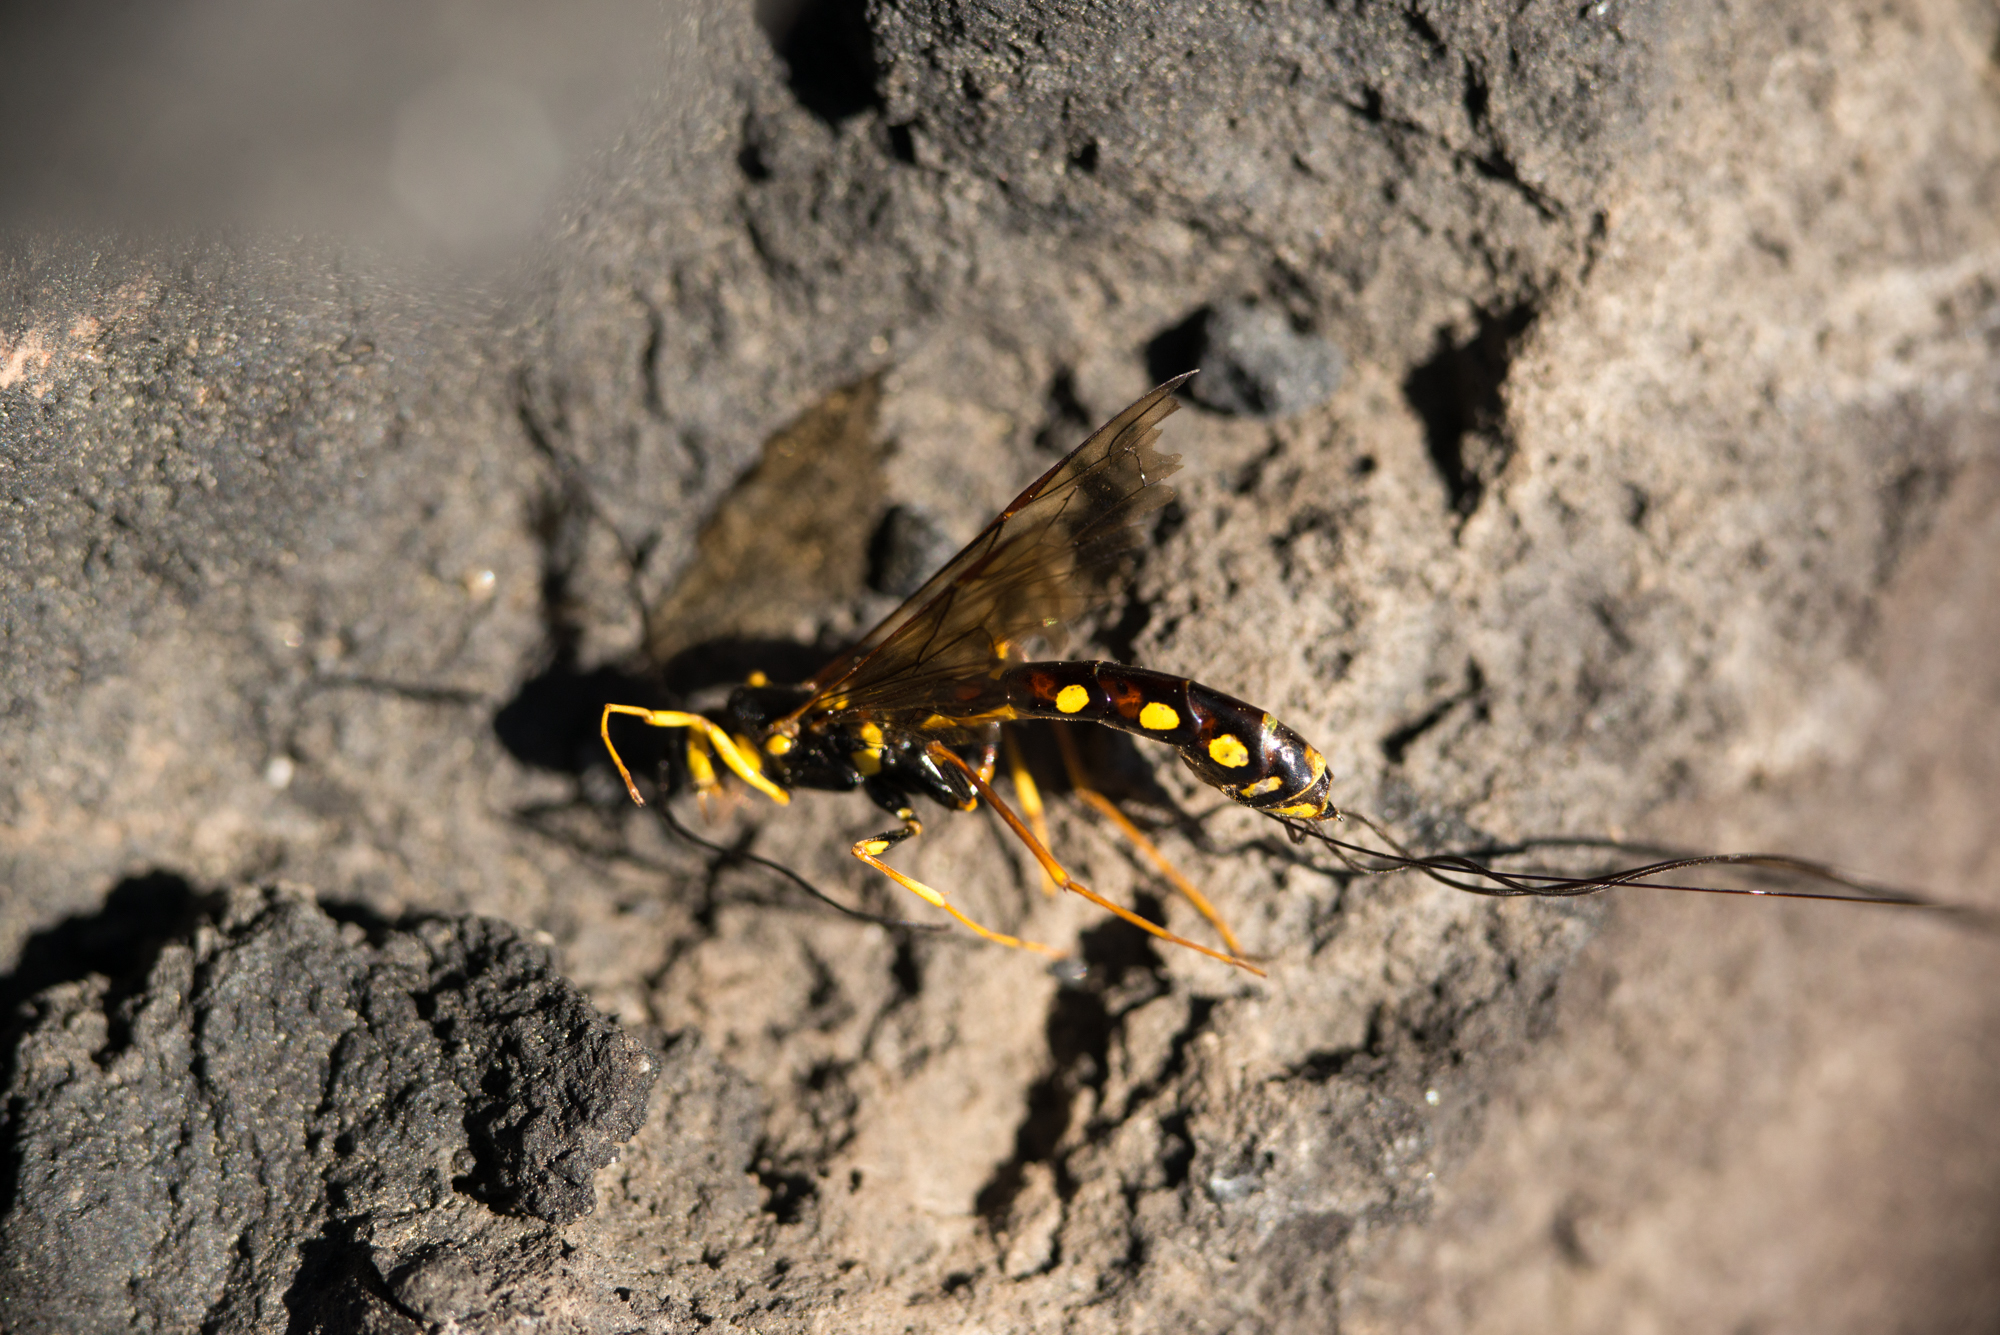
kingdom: Animalia
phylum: Arthropoda
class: Insecta
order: Hymenoptera
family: Ichneumonidae
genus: Megarhyssa
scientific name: Megarhyssa nortoni
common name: Norton's giant ichneumonid wasp
